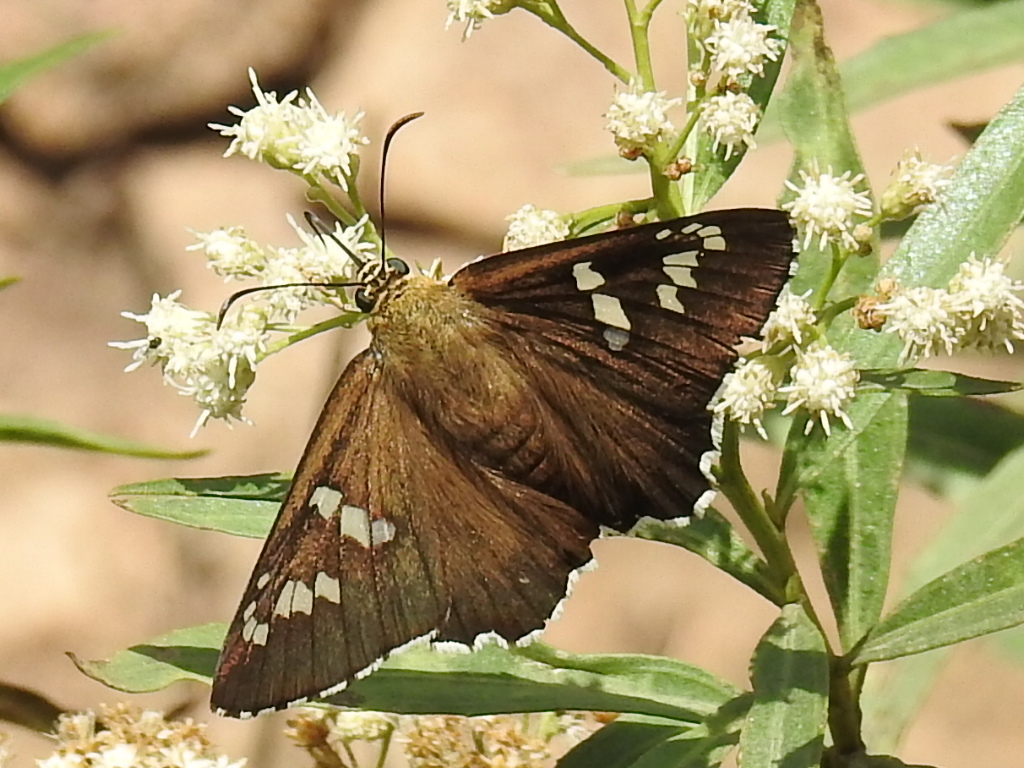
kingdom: Animalia
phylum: Arthropoda
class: Insecta
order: Lepidoptera
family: Hesperiidae
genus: Pyrrhopyge
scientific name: Pyrrhopyge araxes
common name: Dull firetip
